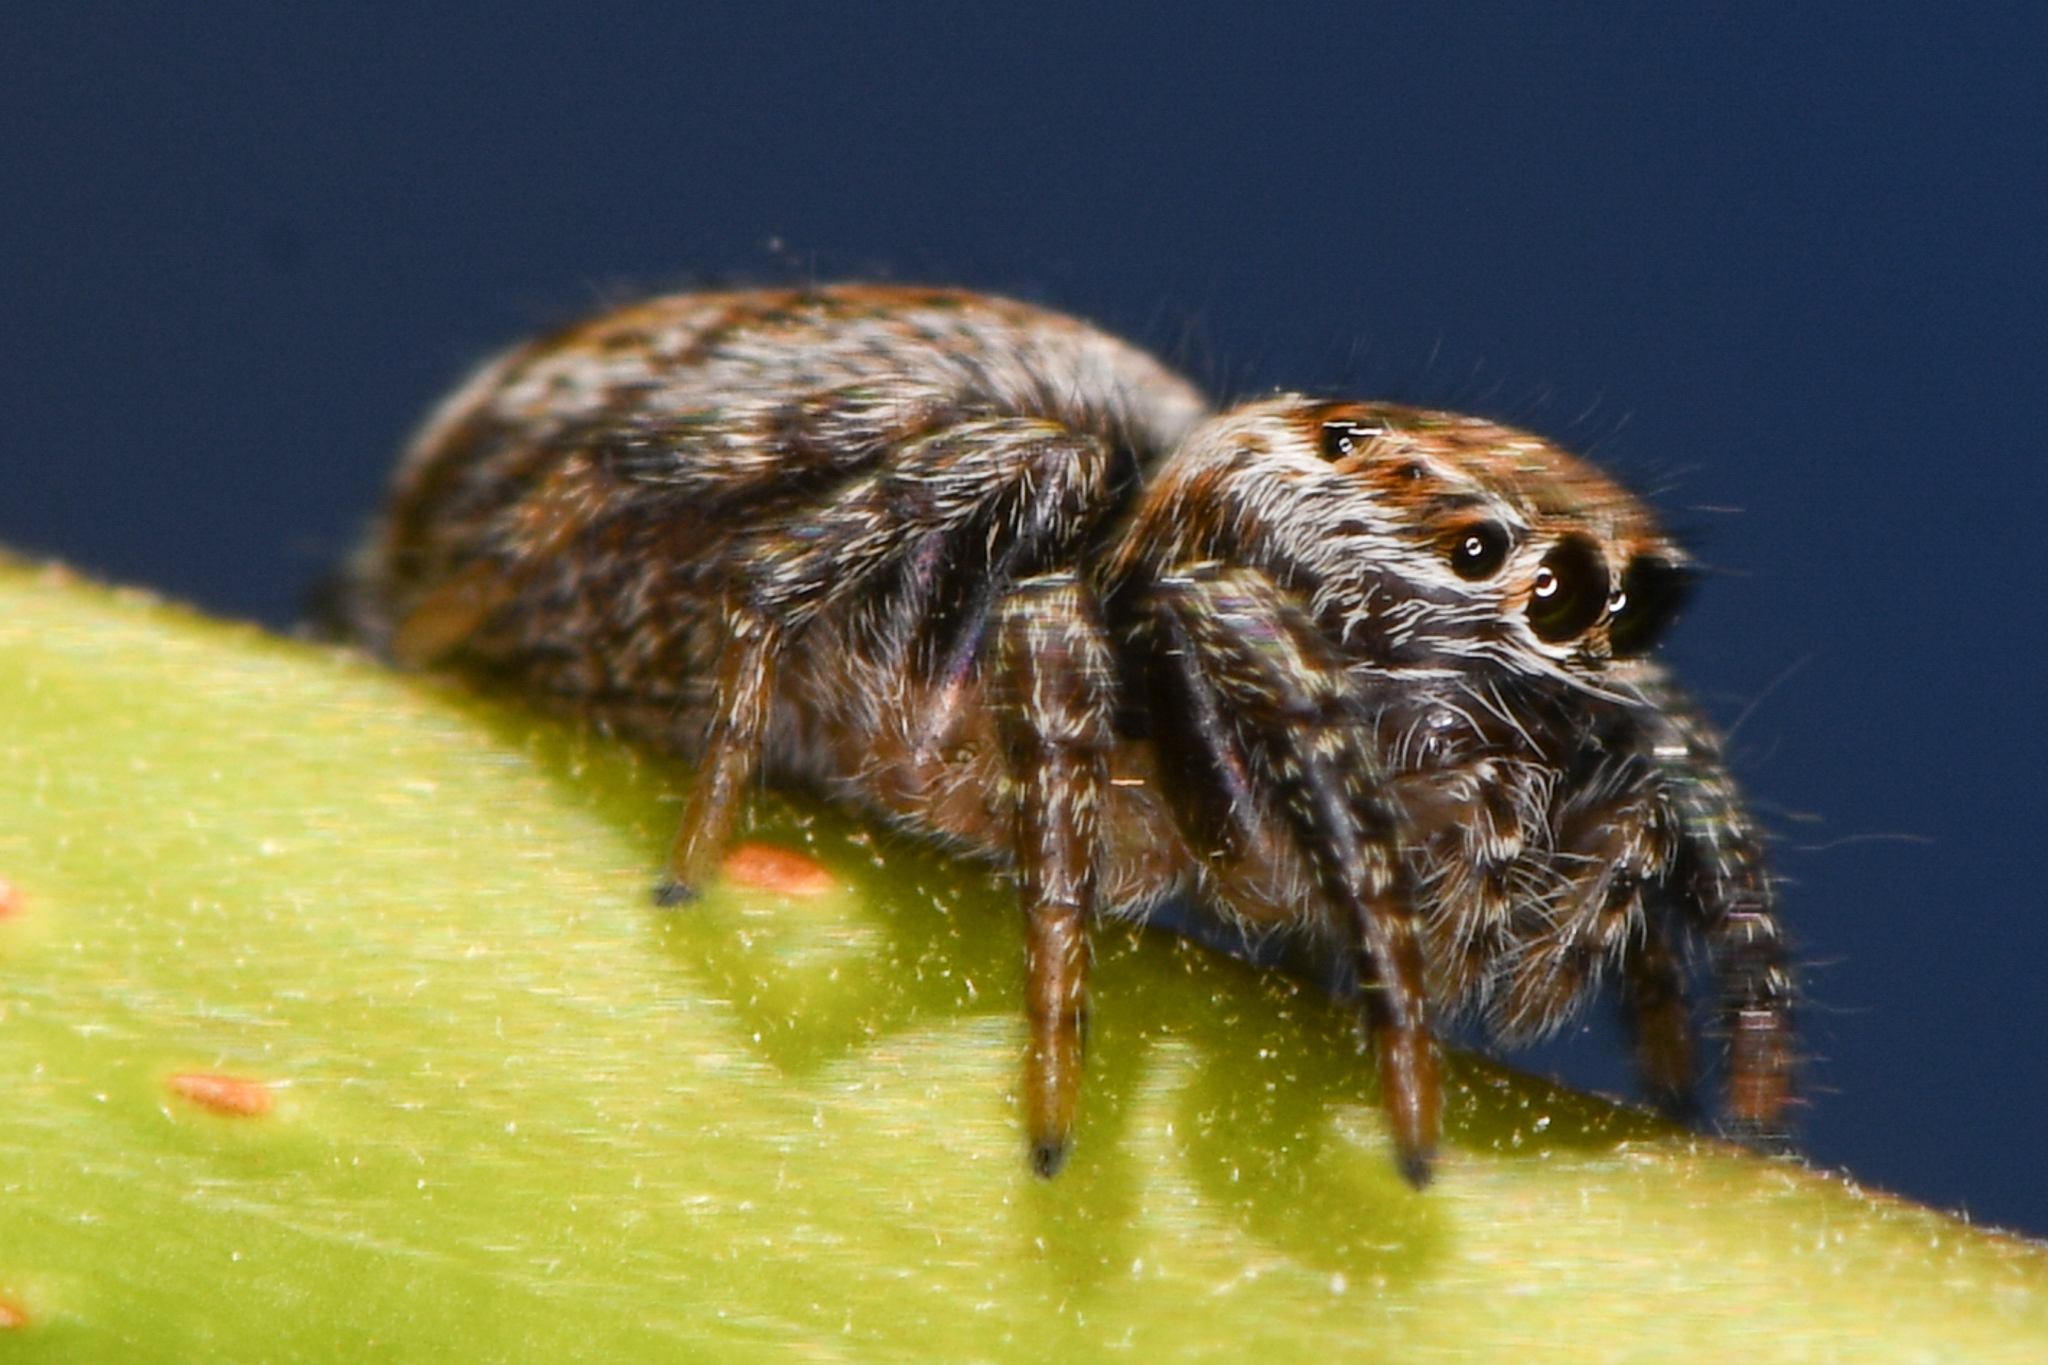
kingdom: Animalia
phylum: Arthropoda
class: Arachnida
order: Araneae
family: Salticidae
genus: Evarcha
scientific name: Evarcha proszynskii
